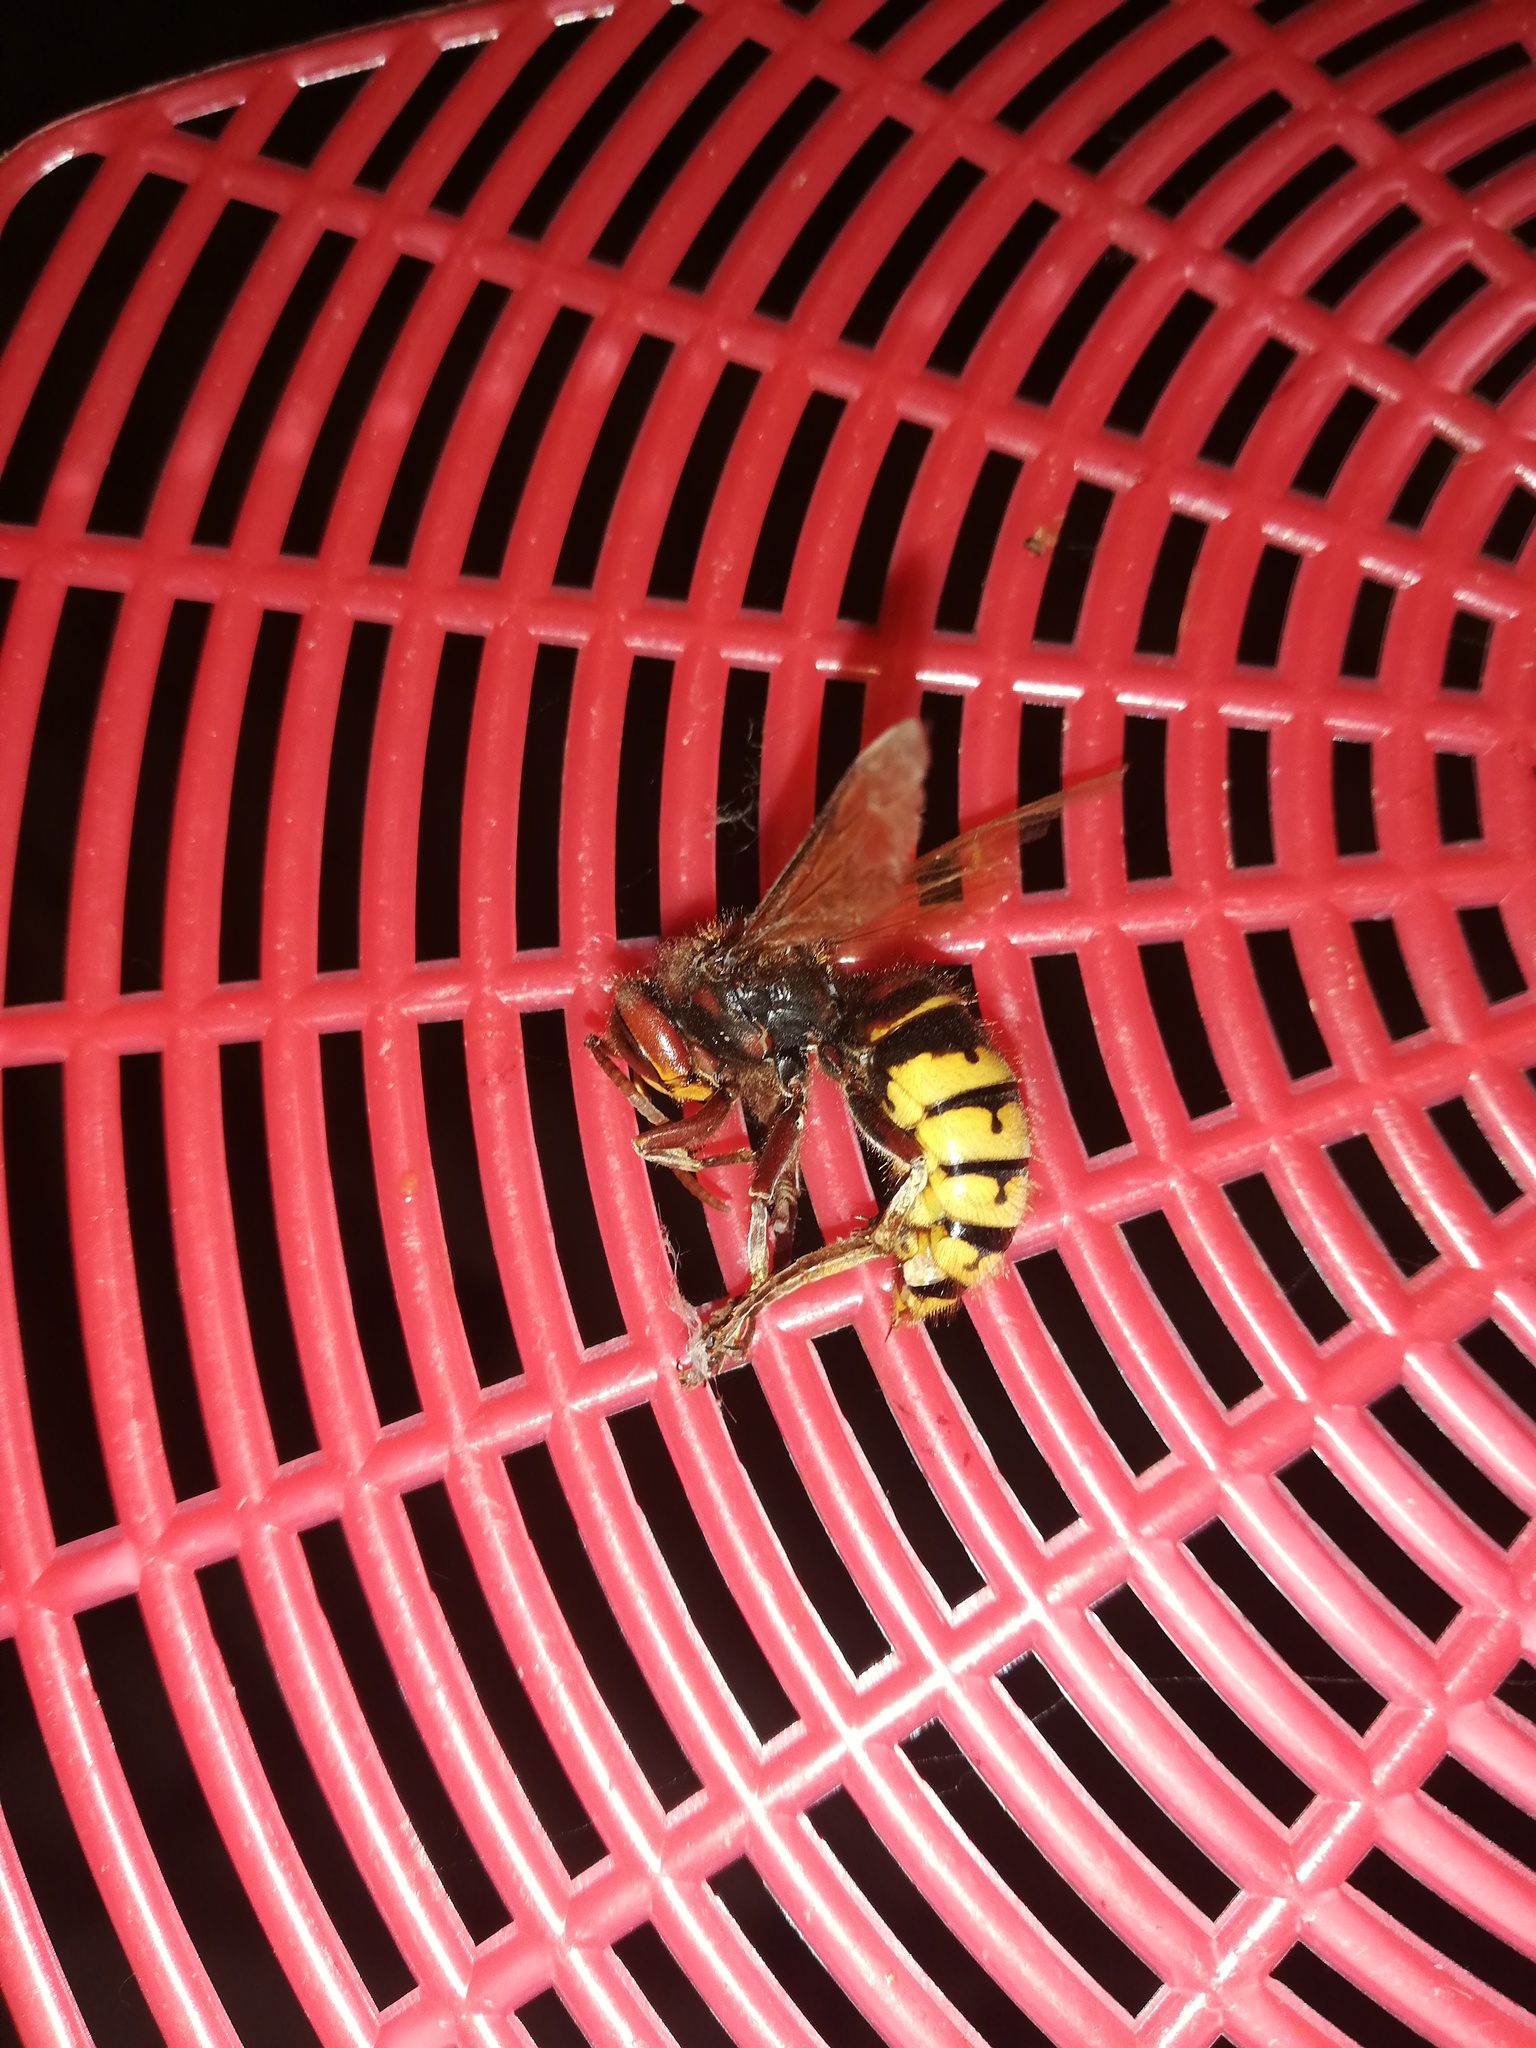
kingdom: Animalia
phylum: Arthropoda
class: Insecta
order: Hymenoptera
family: Vespidae
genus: Vespa
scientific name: Vespa crabro
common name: Hornet
